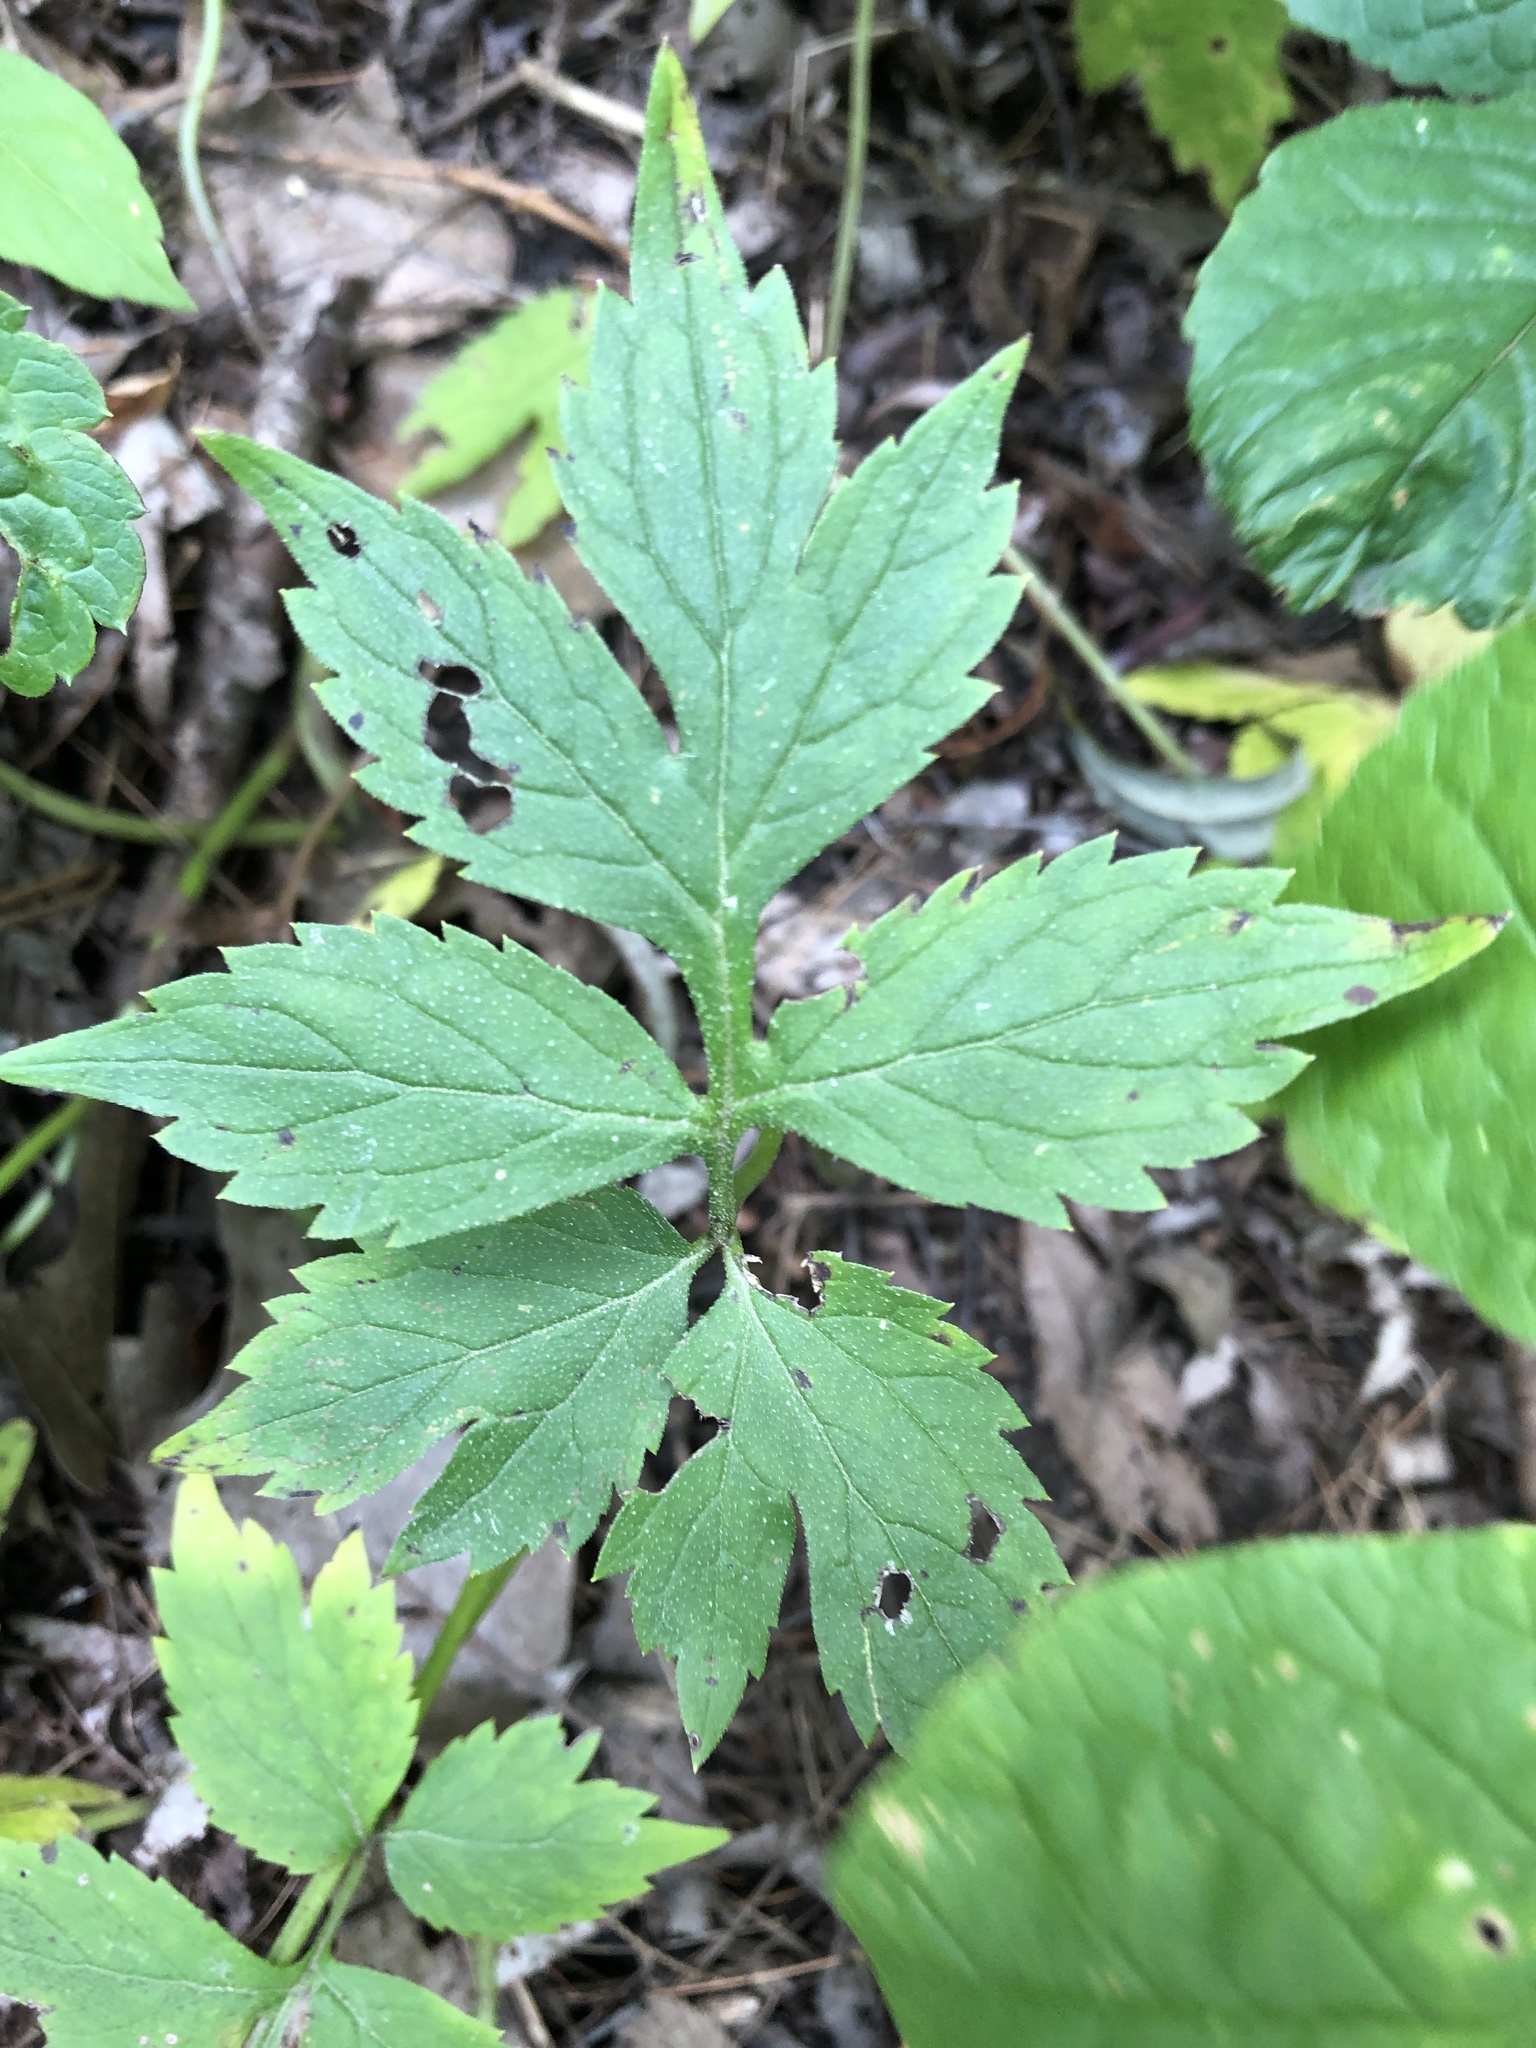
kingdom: Plantae
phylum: Tracheophyta
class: Magnoliopsida
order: Boraginales
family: Hydrophyllaceae
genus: Hydrophyllum
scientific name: Hydrophyllum virginianum
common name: Virginia waterleaf
